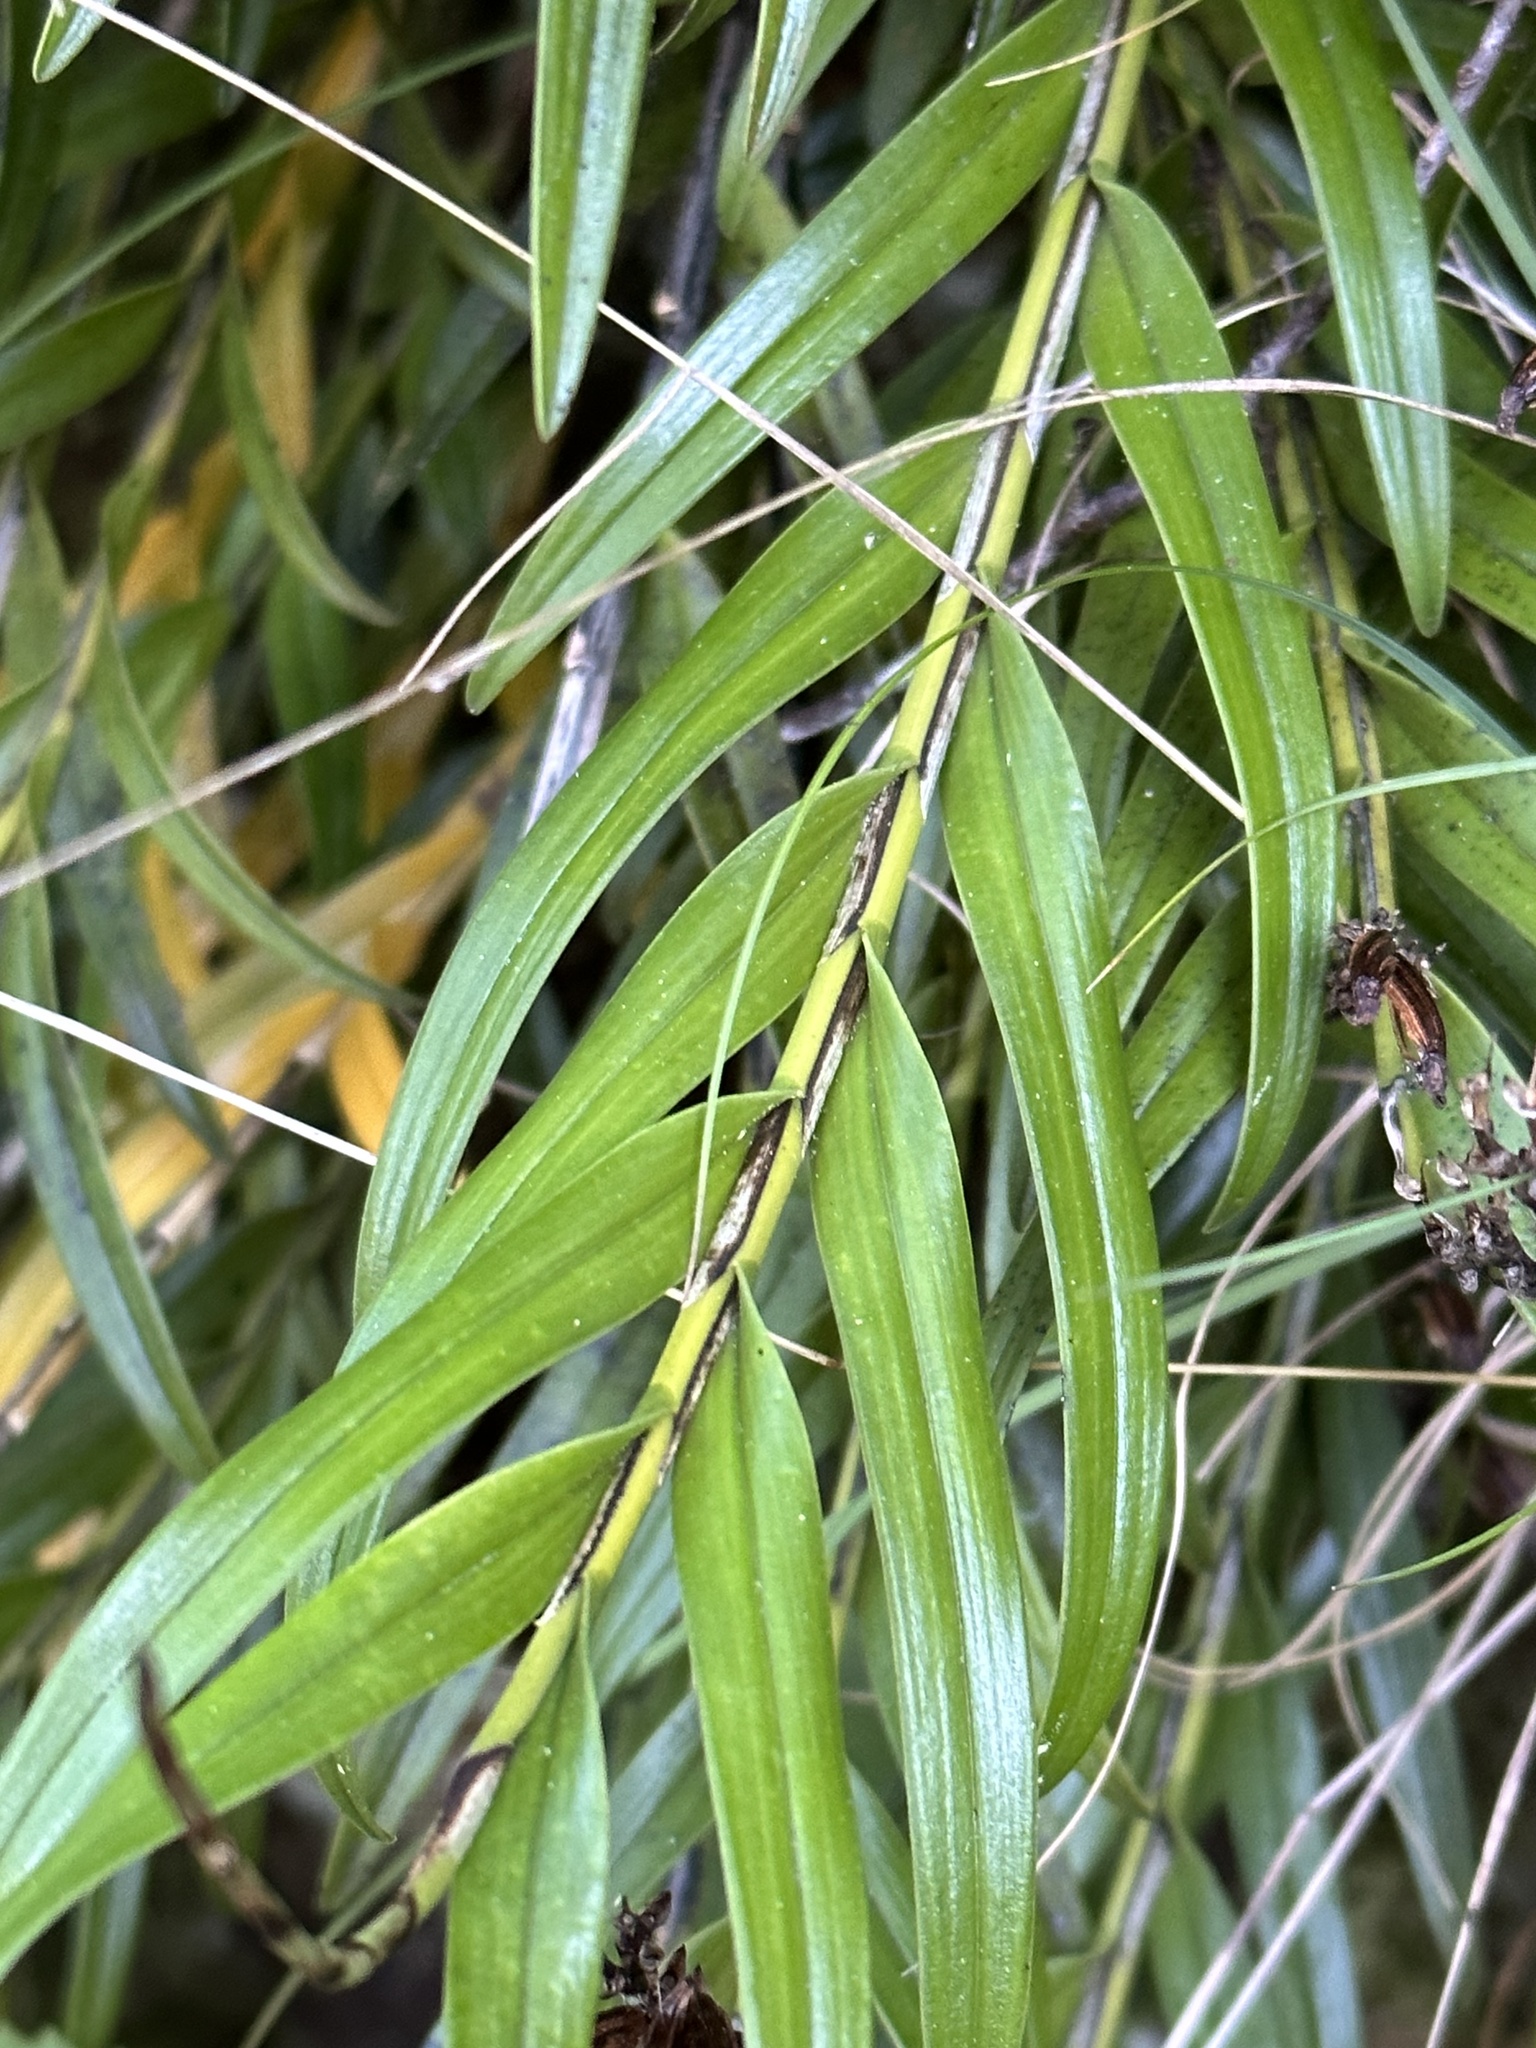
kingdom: Plantae
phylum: Tracheophyta
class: Liliopsida
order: Asparagales
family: Orchidaceae
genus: Earina
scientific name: Earina autumnalis
